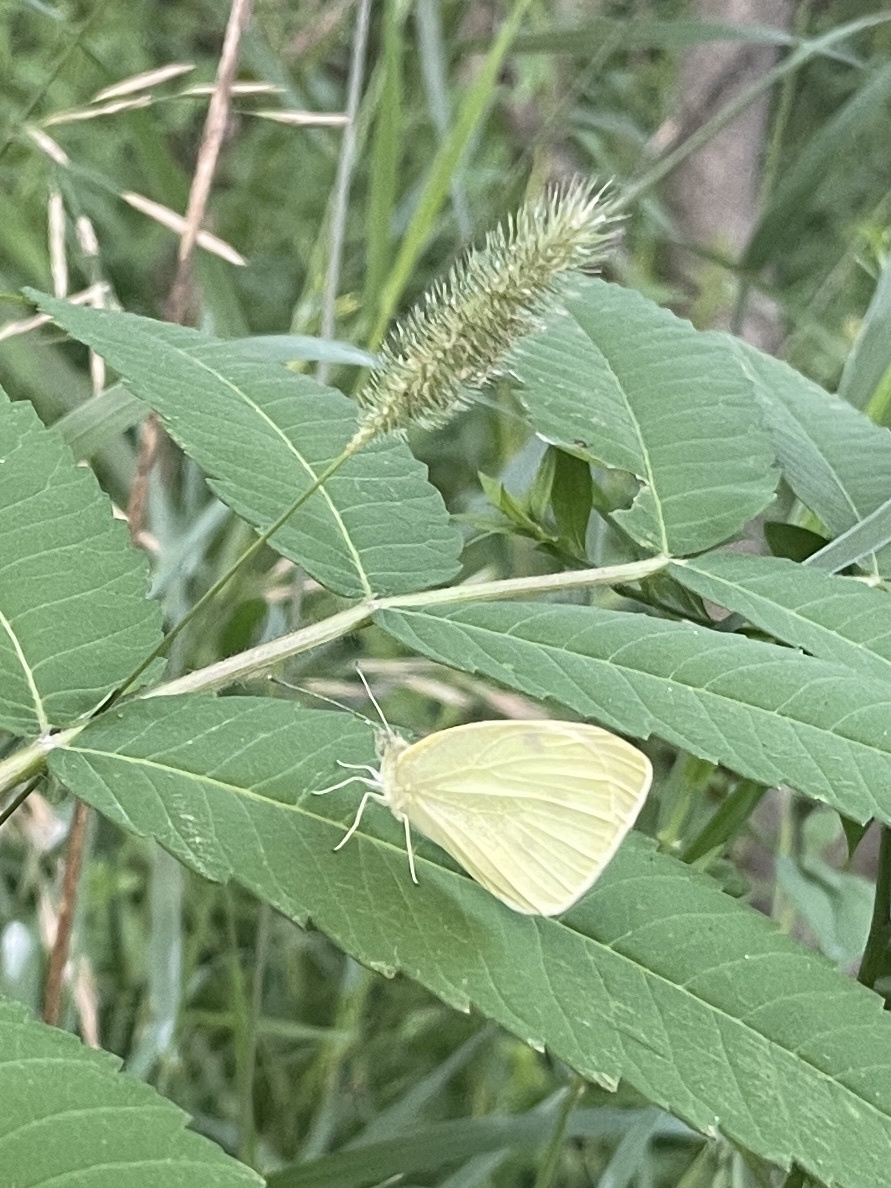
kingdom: Animalia
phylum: Arthropoda
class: Insecta
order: Lepidoptera
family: Pieridae
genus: Pieris
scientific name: Pieris rapae
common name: Small white
